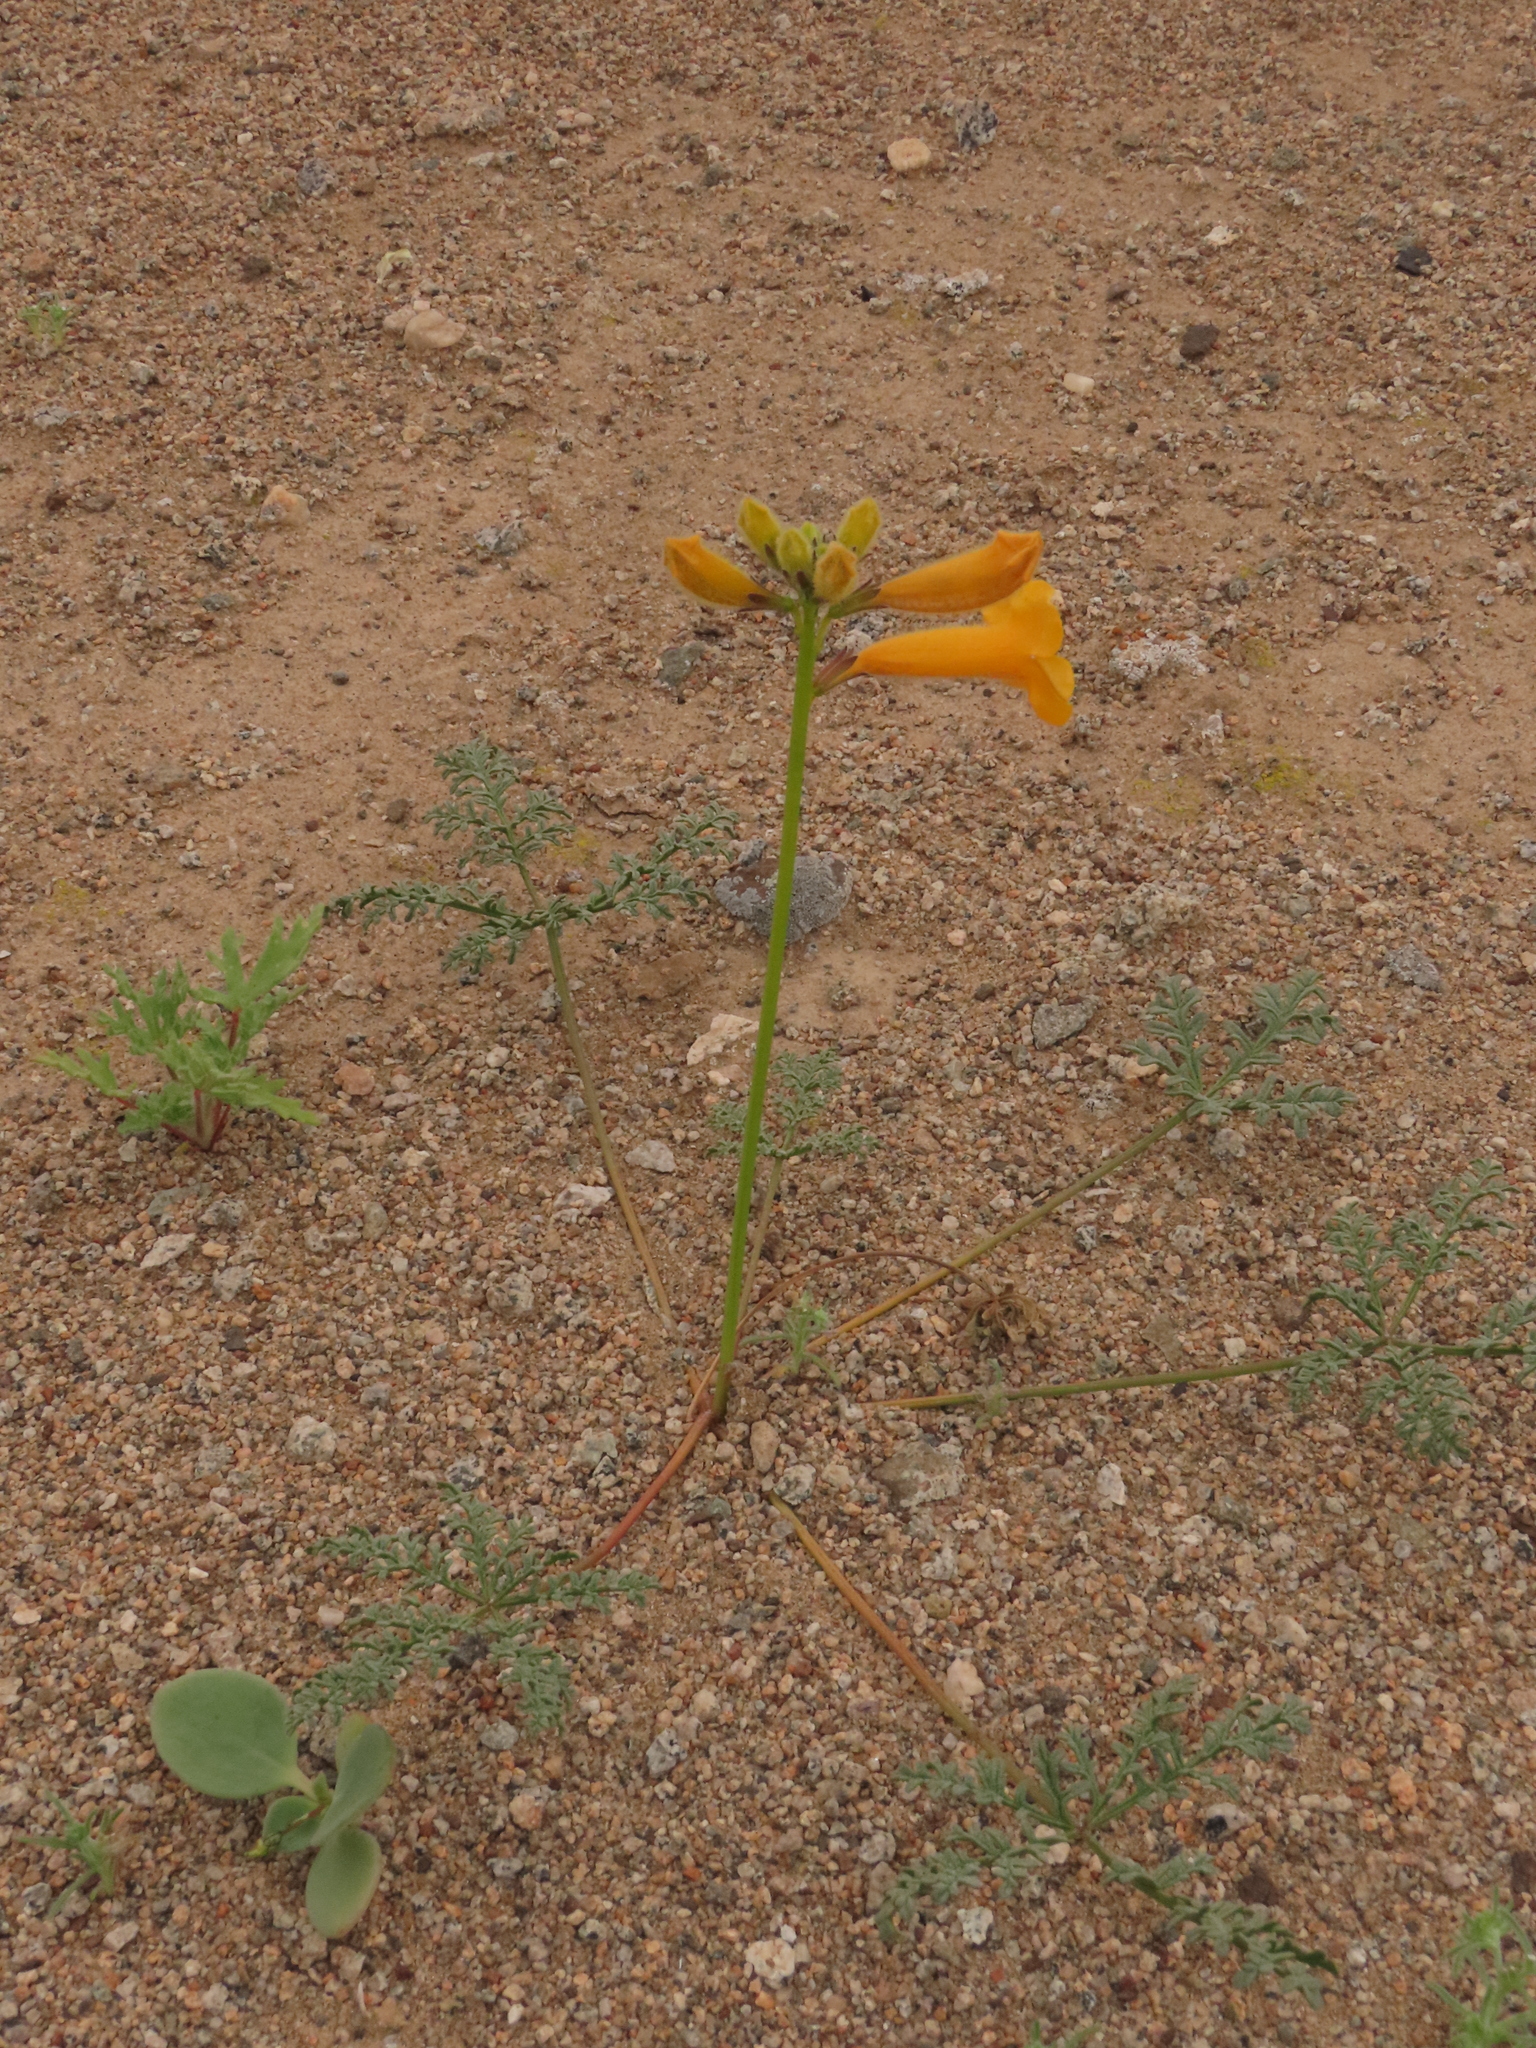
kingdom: Plantae
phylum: Tracheophyta
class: Magnoliopsida
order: Lamiales
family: Bignoniaceae
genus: Argylia
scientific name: Argylia radiata
